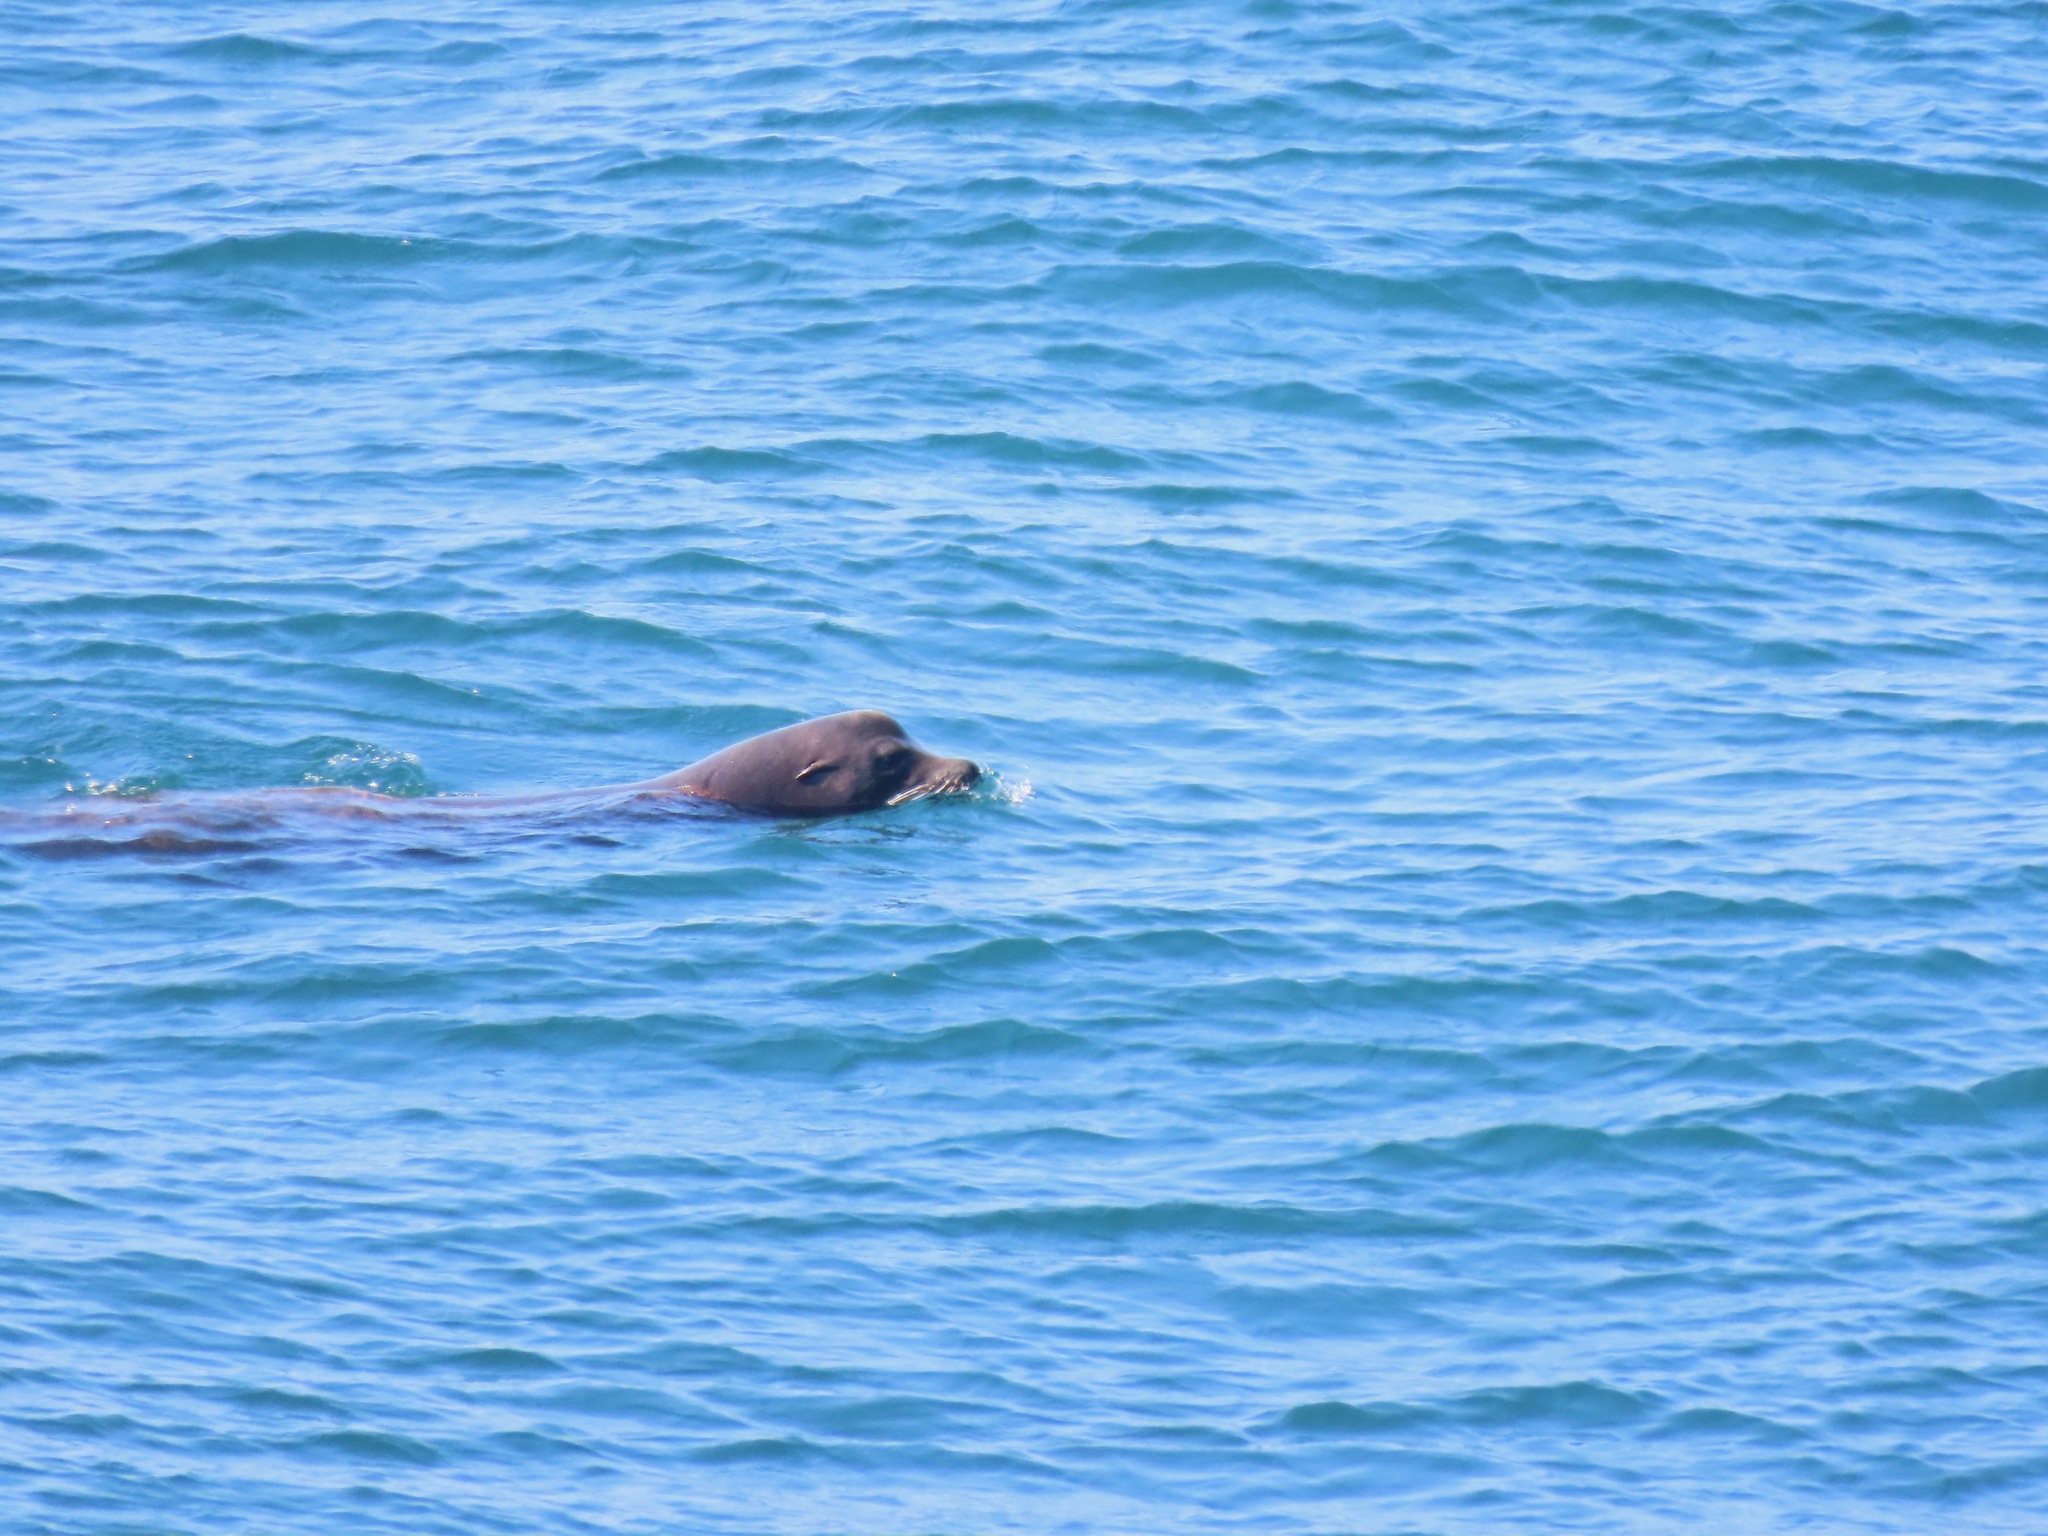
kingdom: Animalia
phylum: Chordata
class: Mammalia
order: Carnivora
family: Otariidae
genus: Zalophus
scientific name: Zalophus californianus
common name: California sea lion
